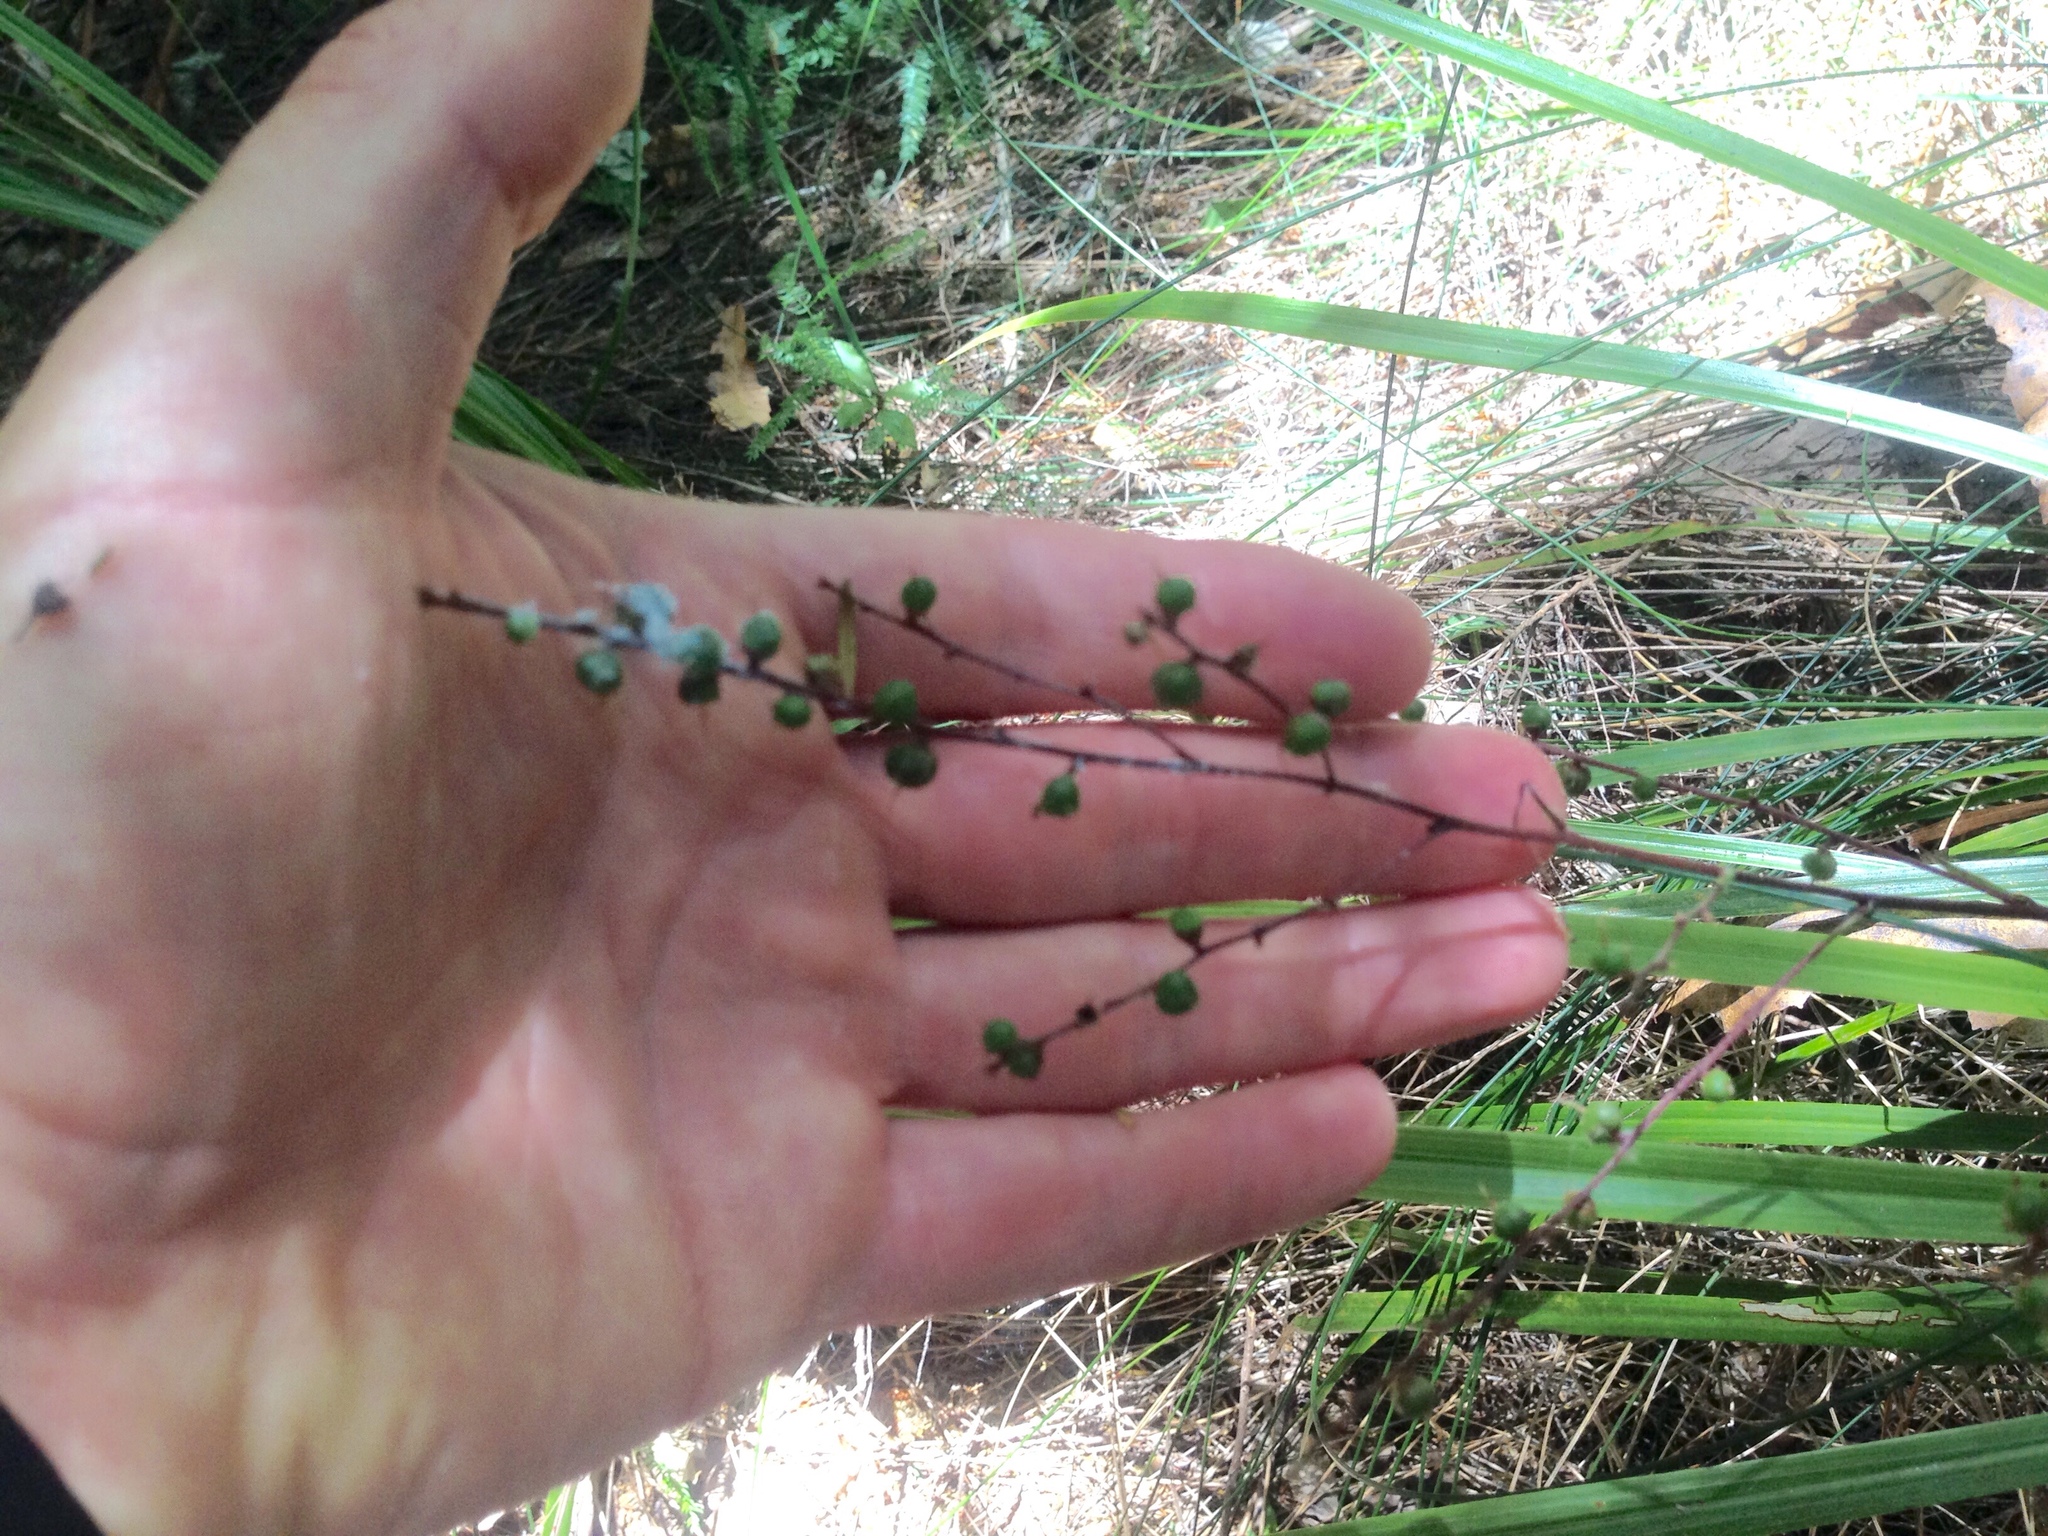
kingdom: Plantae
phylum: Tracheophyta
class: Liliopsida
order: Asparagales
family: Asparagaceae
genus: Cordyline
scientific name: Cordyline pumilio
